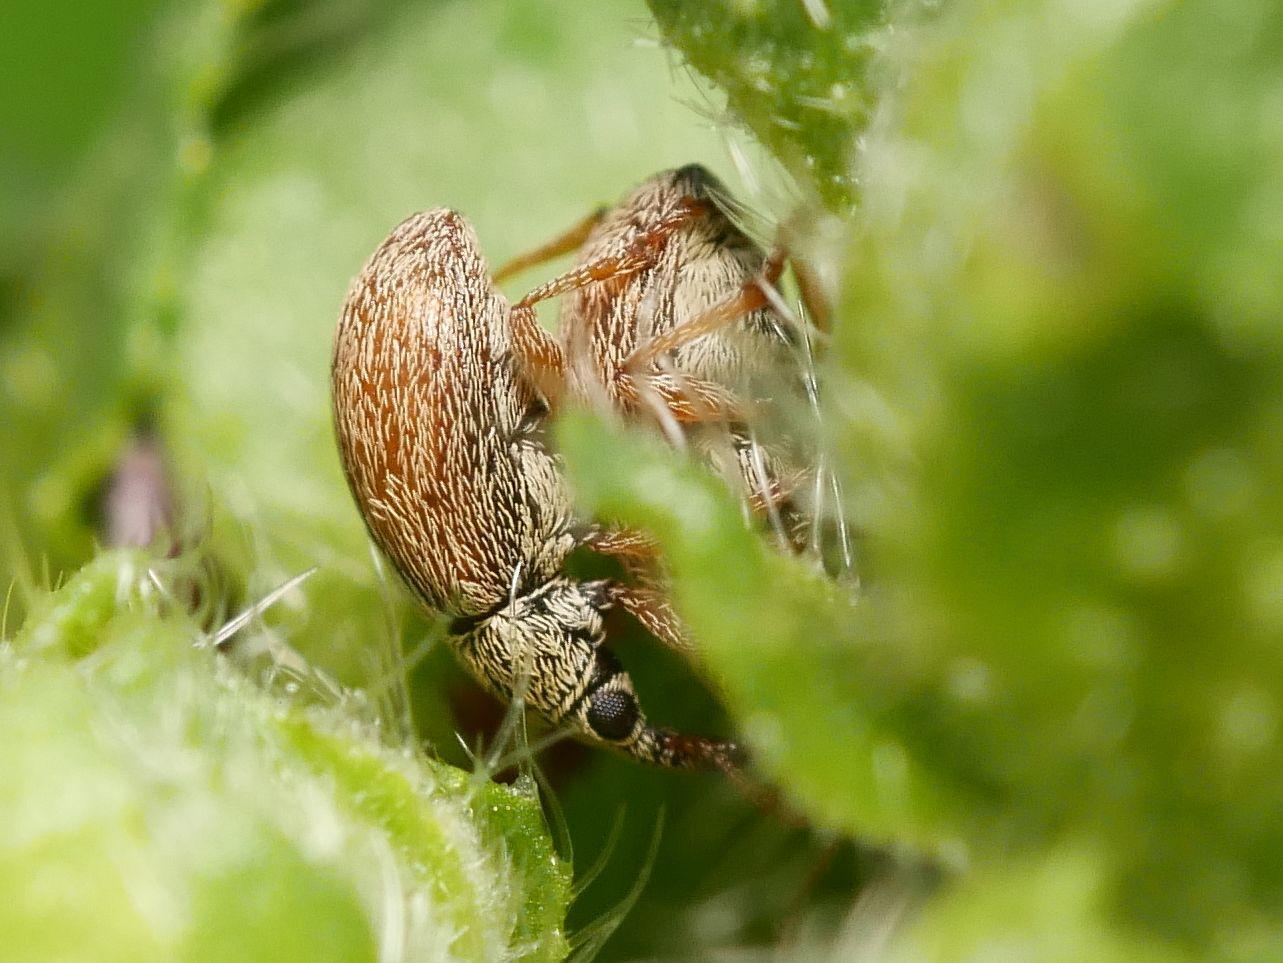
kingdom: Animalia
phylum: Arthropoda
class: Insecta
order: Coleoptera
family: Apionidae
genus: Malvapion
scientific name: Malvapion malvae
